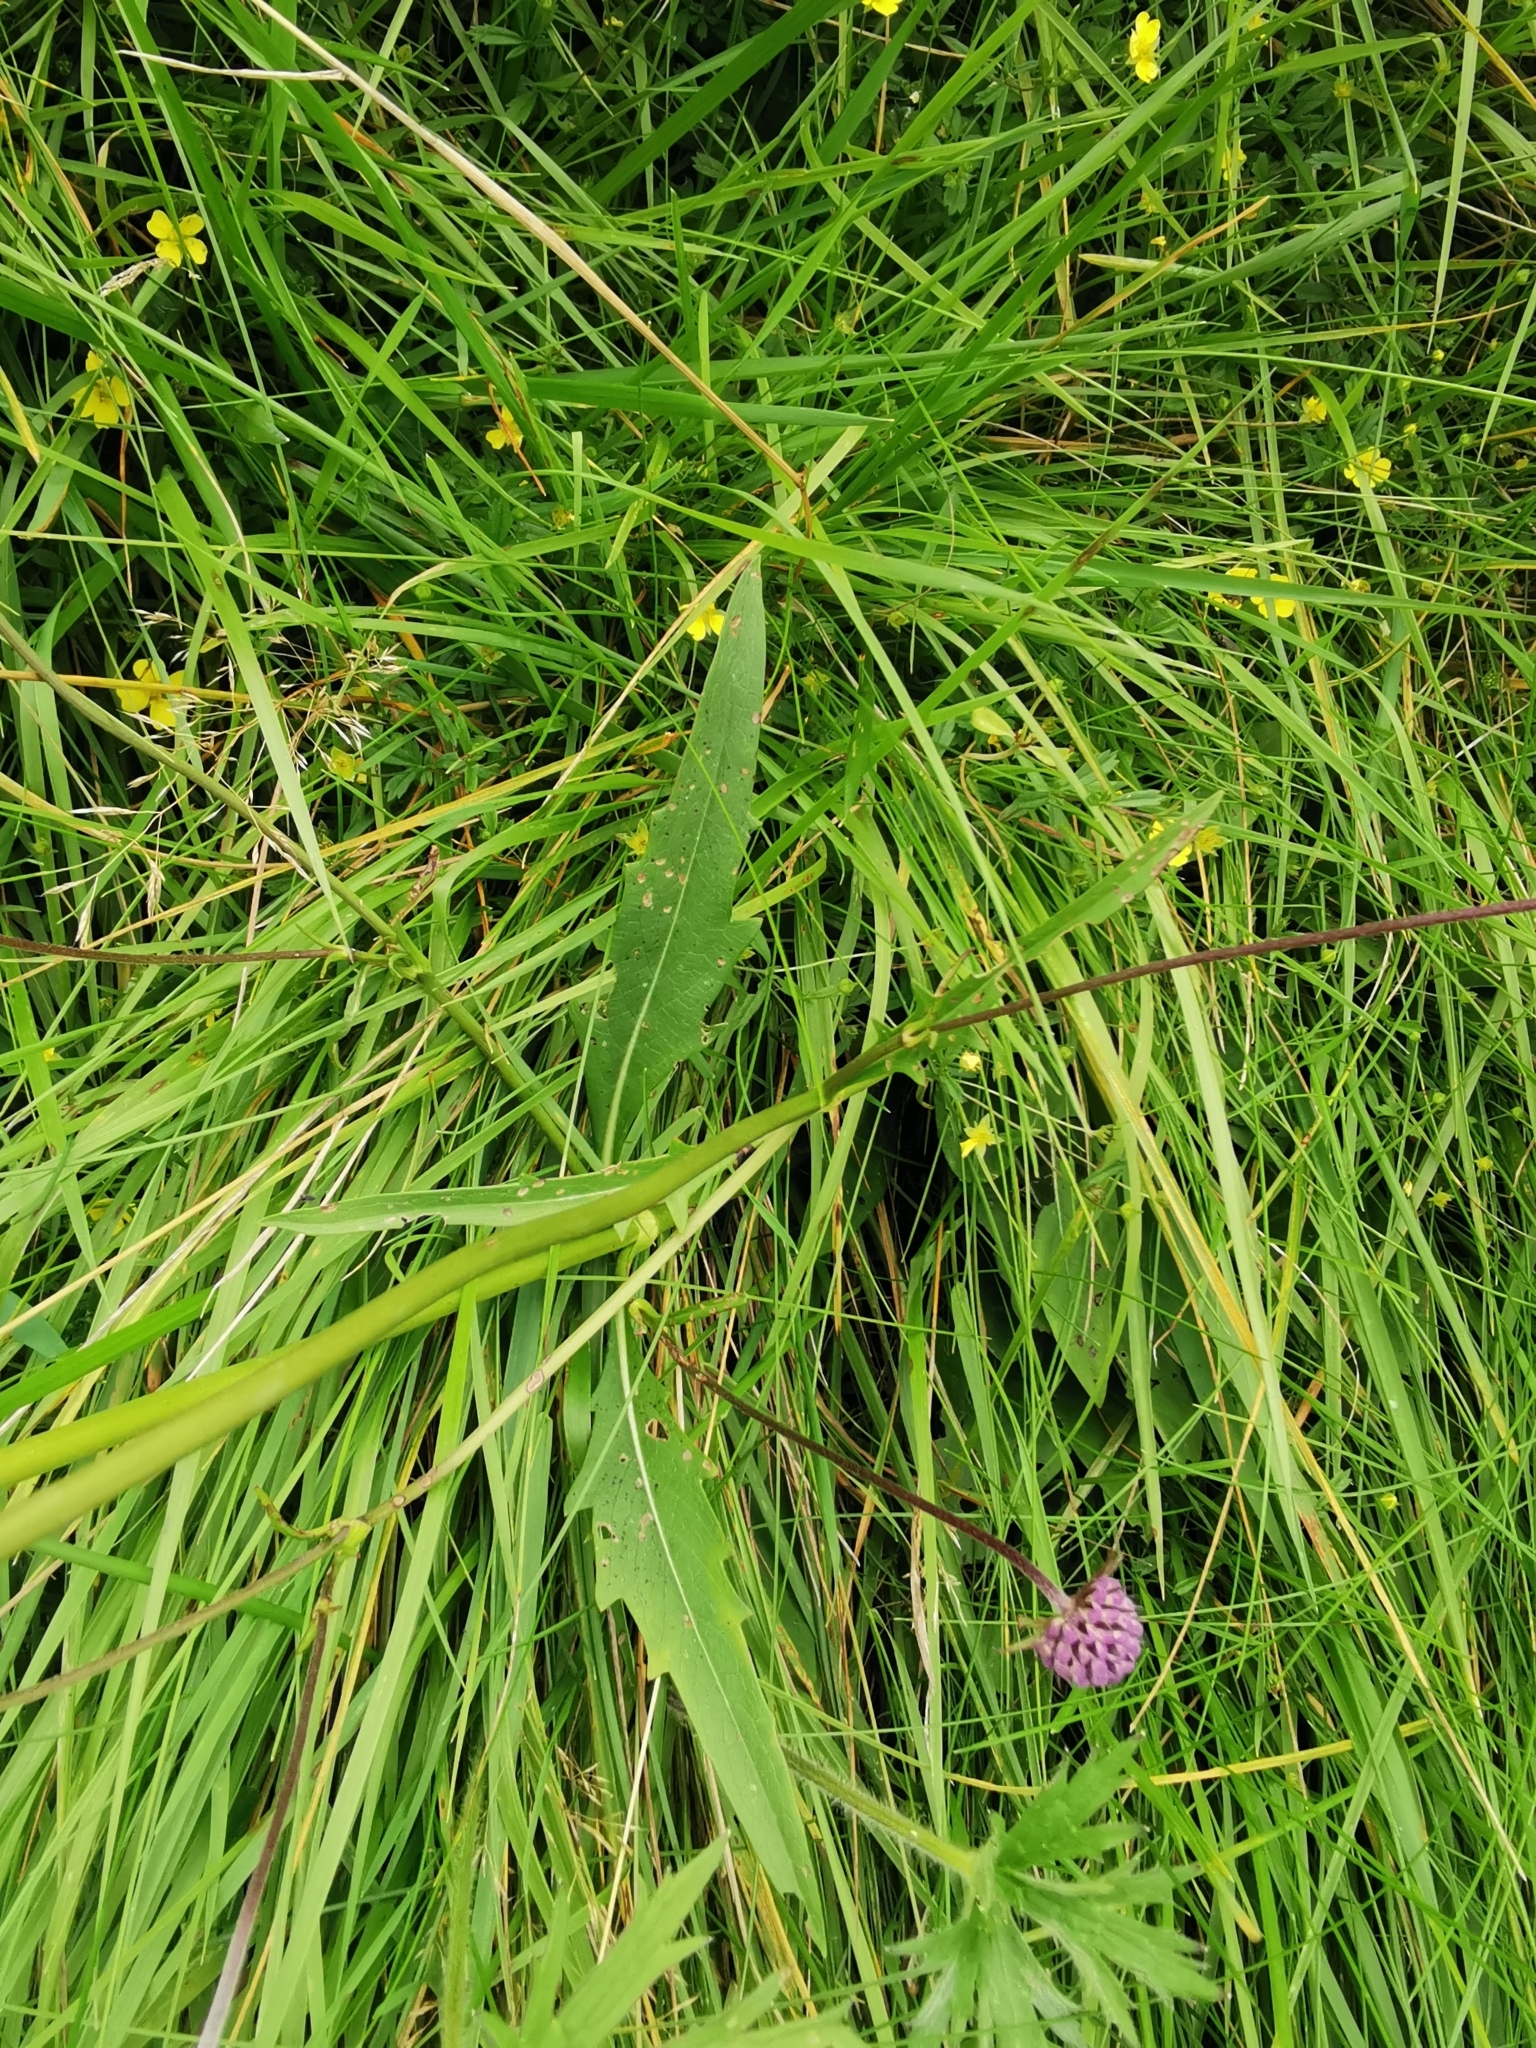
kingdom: Plantae
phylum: Tracheophyta
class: Magnoliopsida
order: Dipsacales
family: Caprifoliaceae
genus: Succisa
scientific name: Succisa pratensis
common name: Devil's-bit
